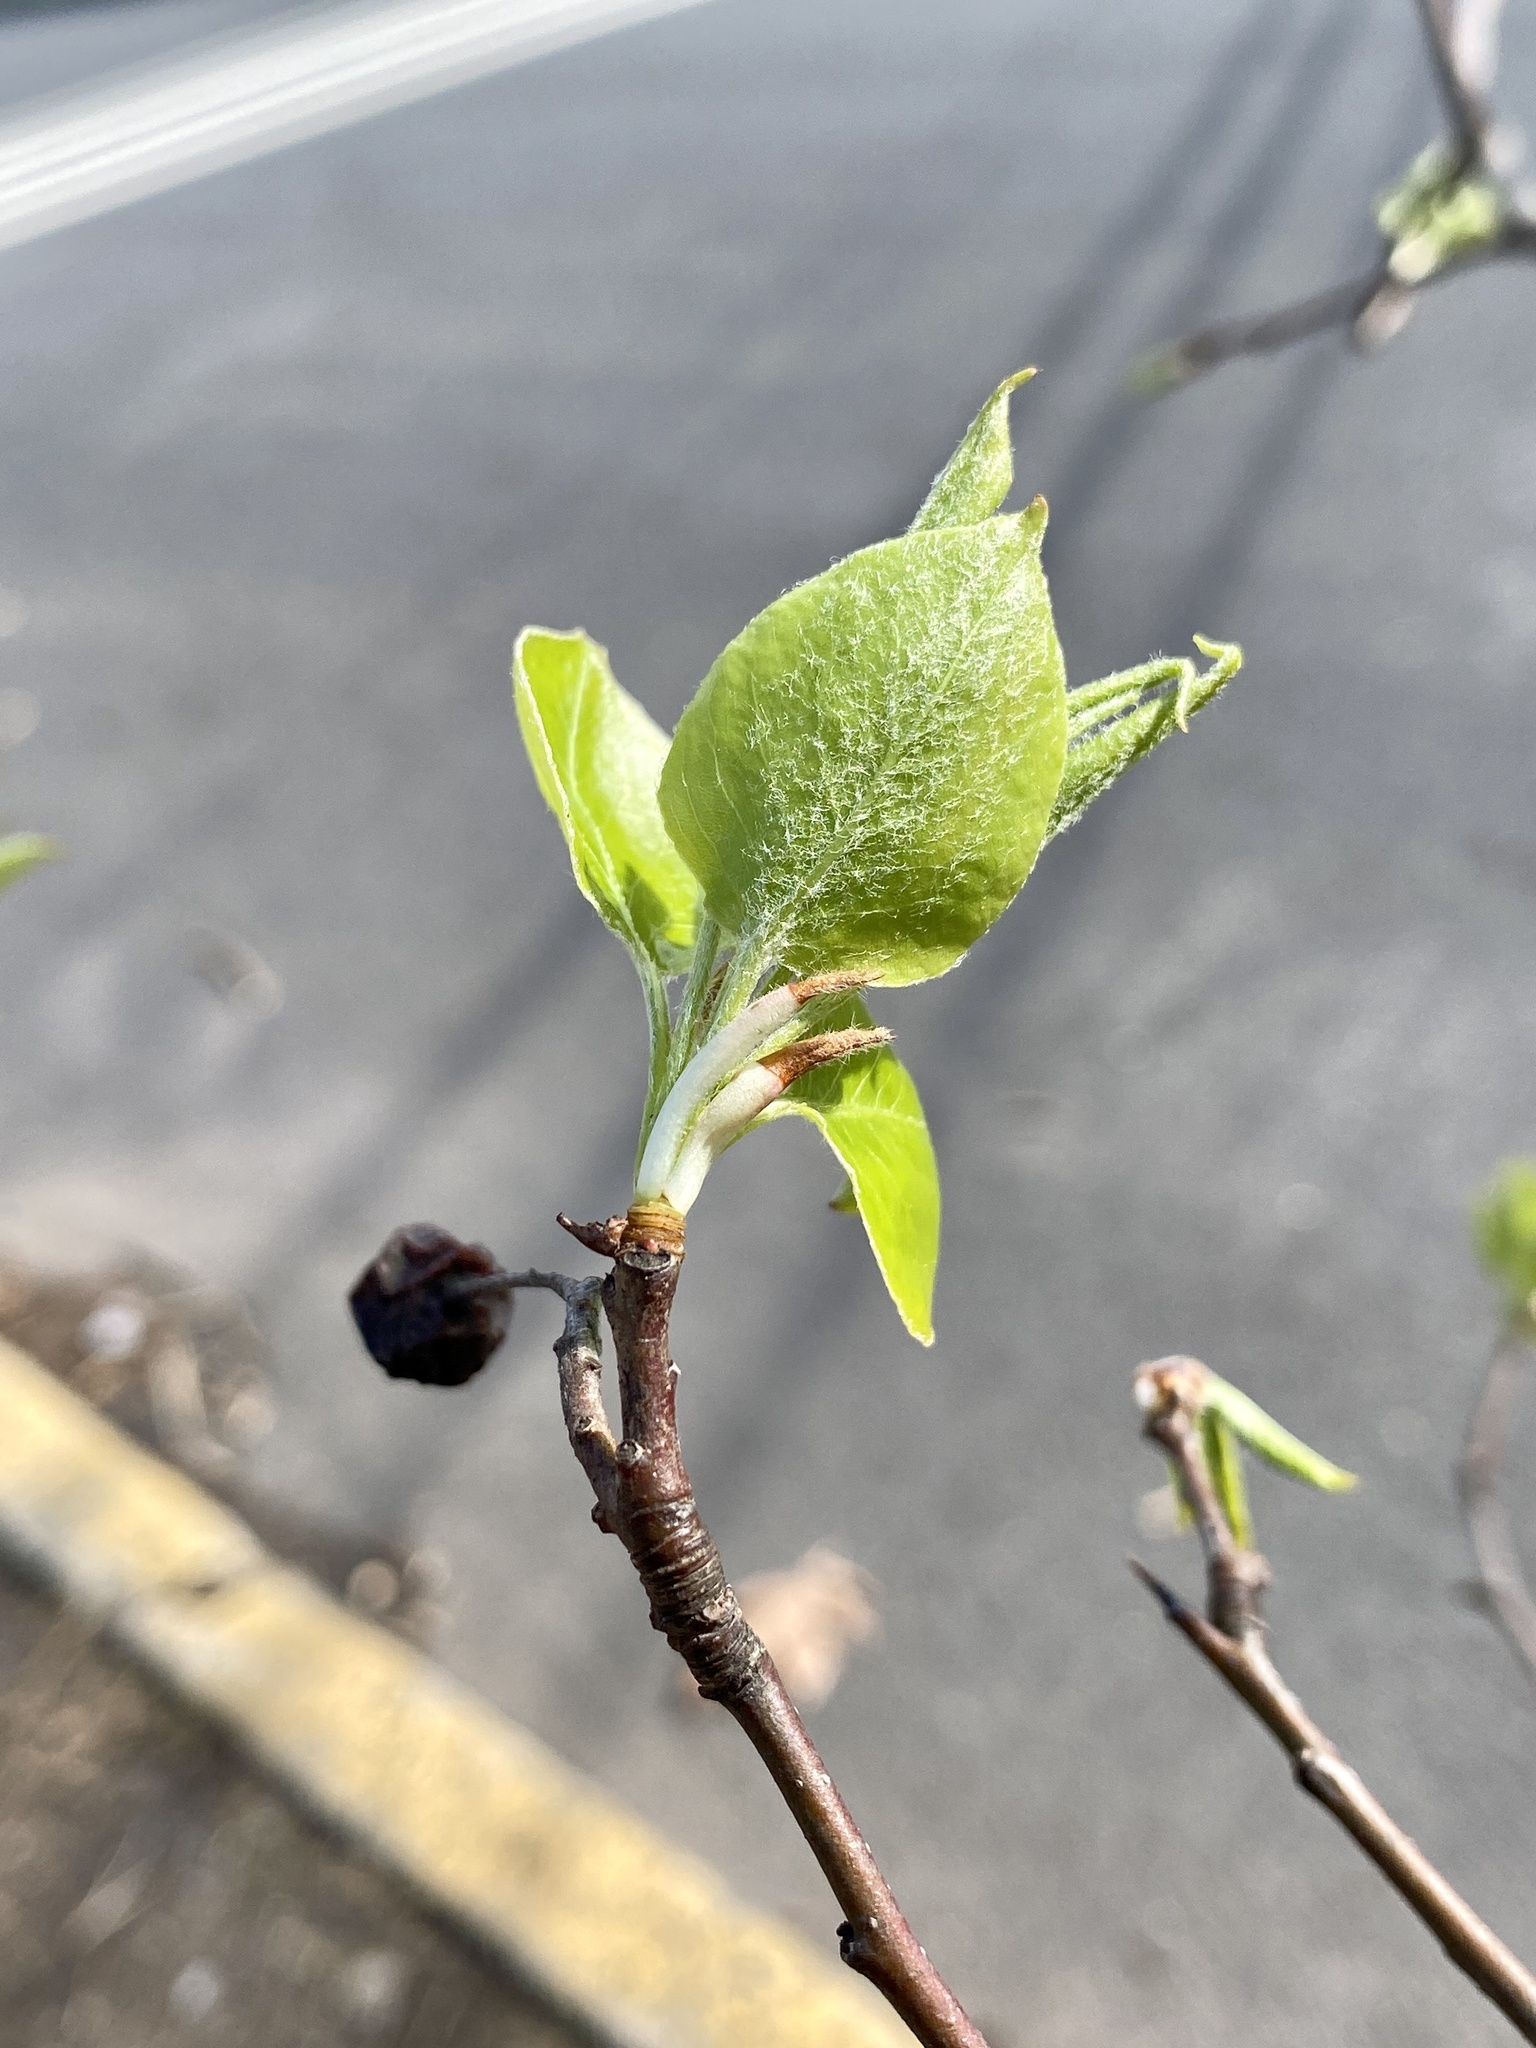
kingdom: Plantae
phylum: Tracheophyta
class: Magnoliopsida
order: Rosales
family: Rosaceae
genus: Pyrus
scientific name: Pyrus calleryana
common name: Callery pear
